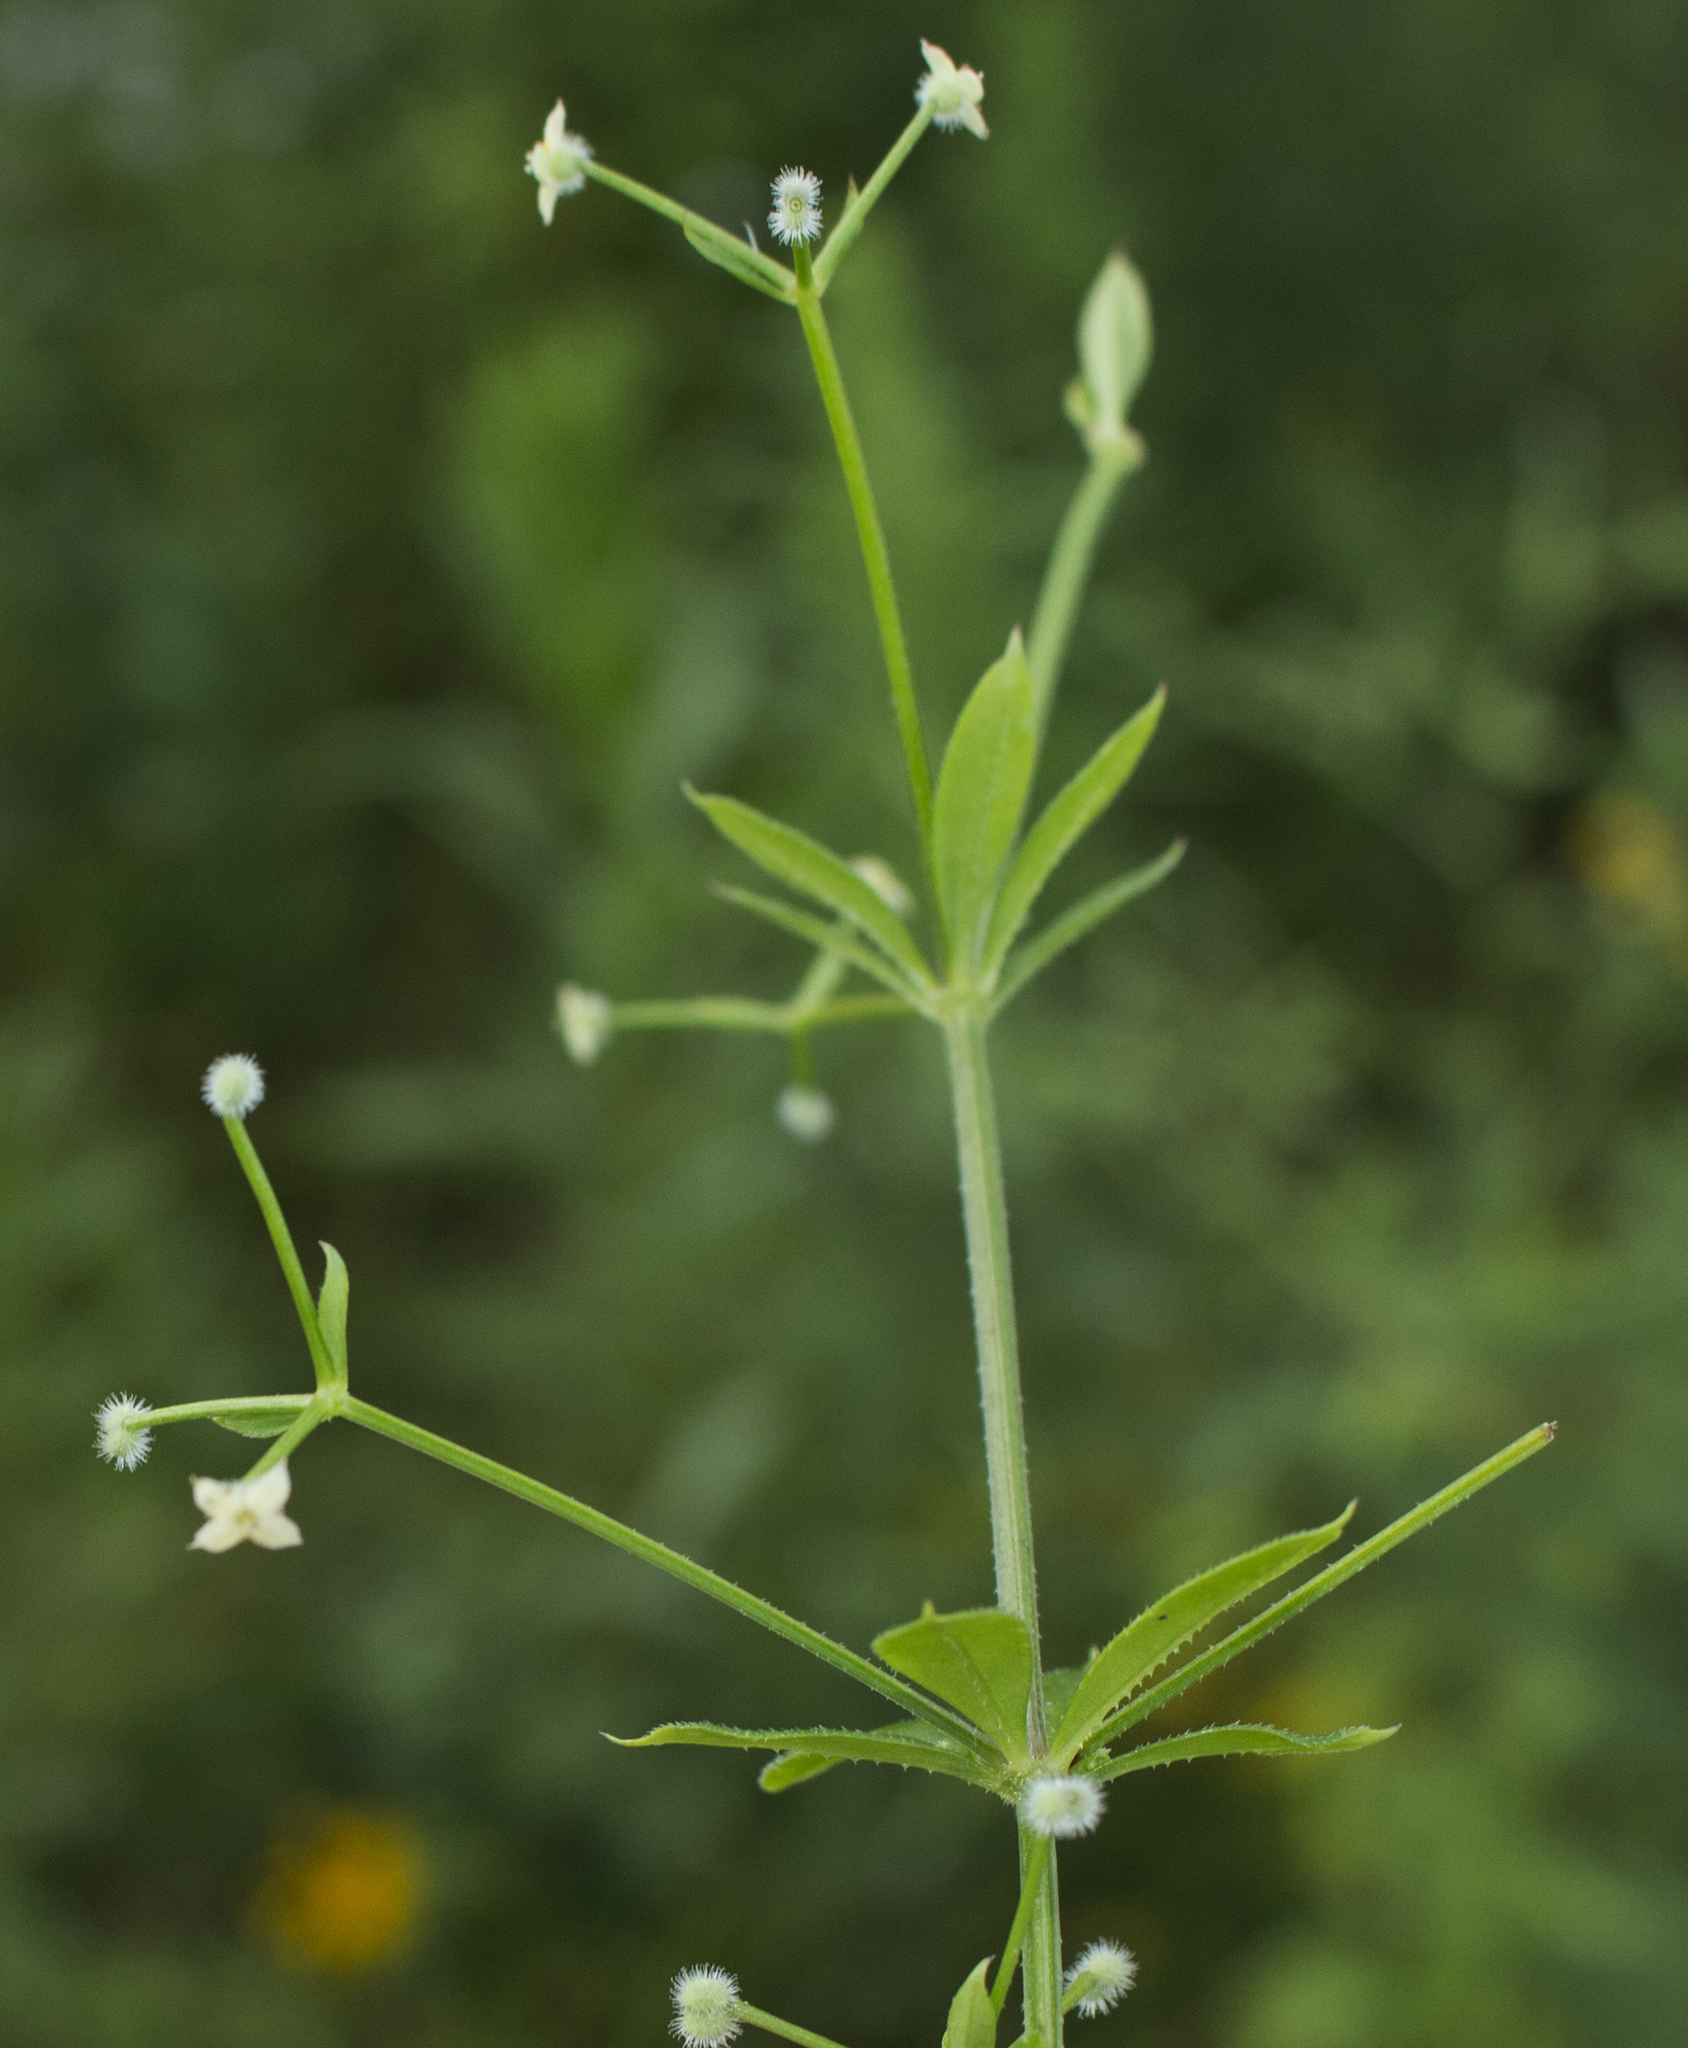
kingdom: Plantae
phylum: Tracheophyta
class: Magnoliopsida
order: Gentianales
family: Rubiaceae
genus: Galium
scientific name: Galium triflorum
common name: Fragrant bedstraw
